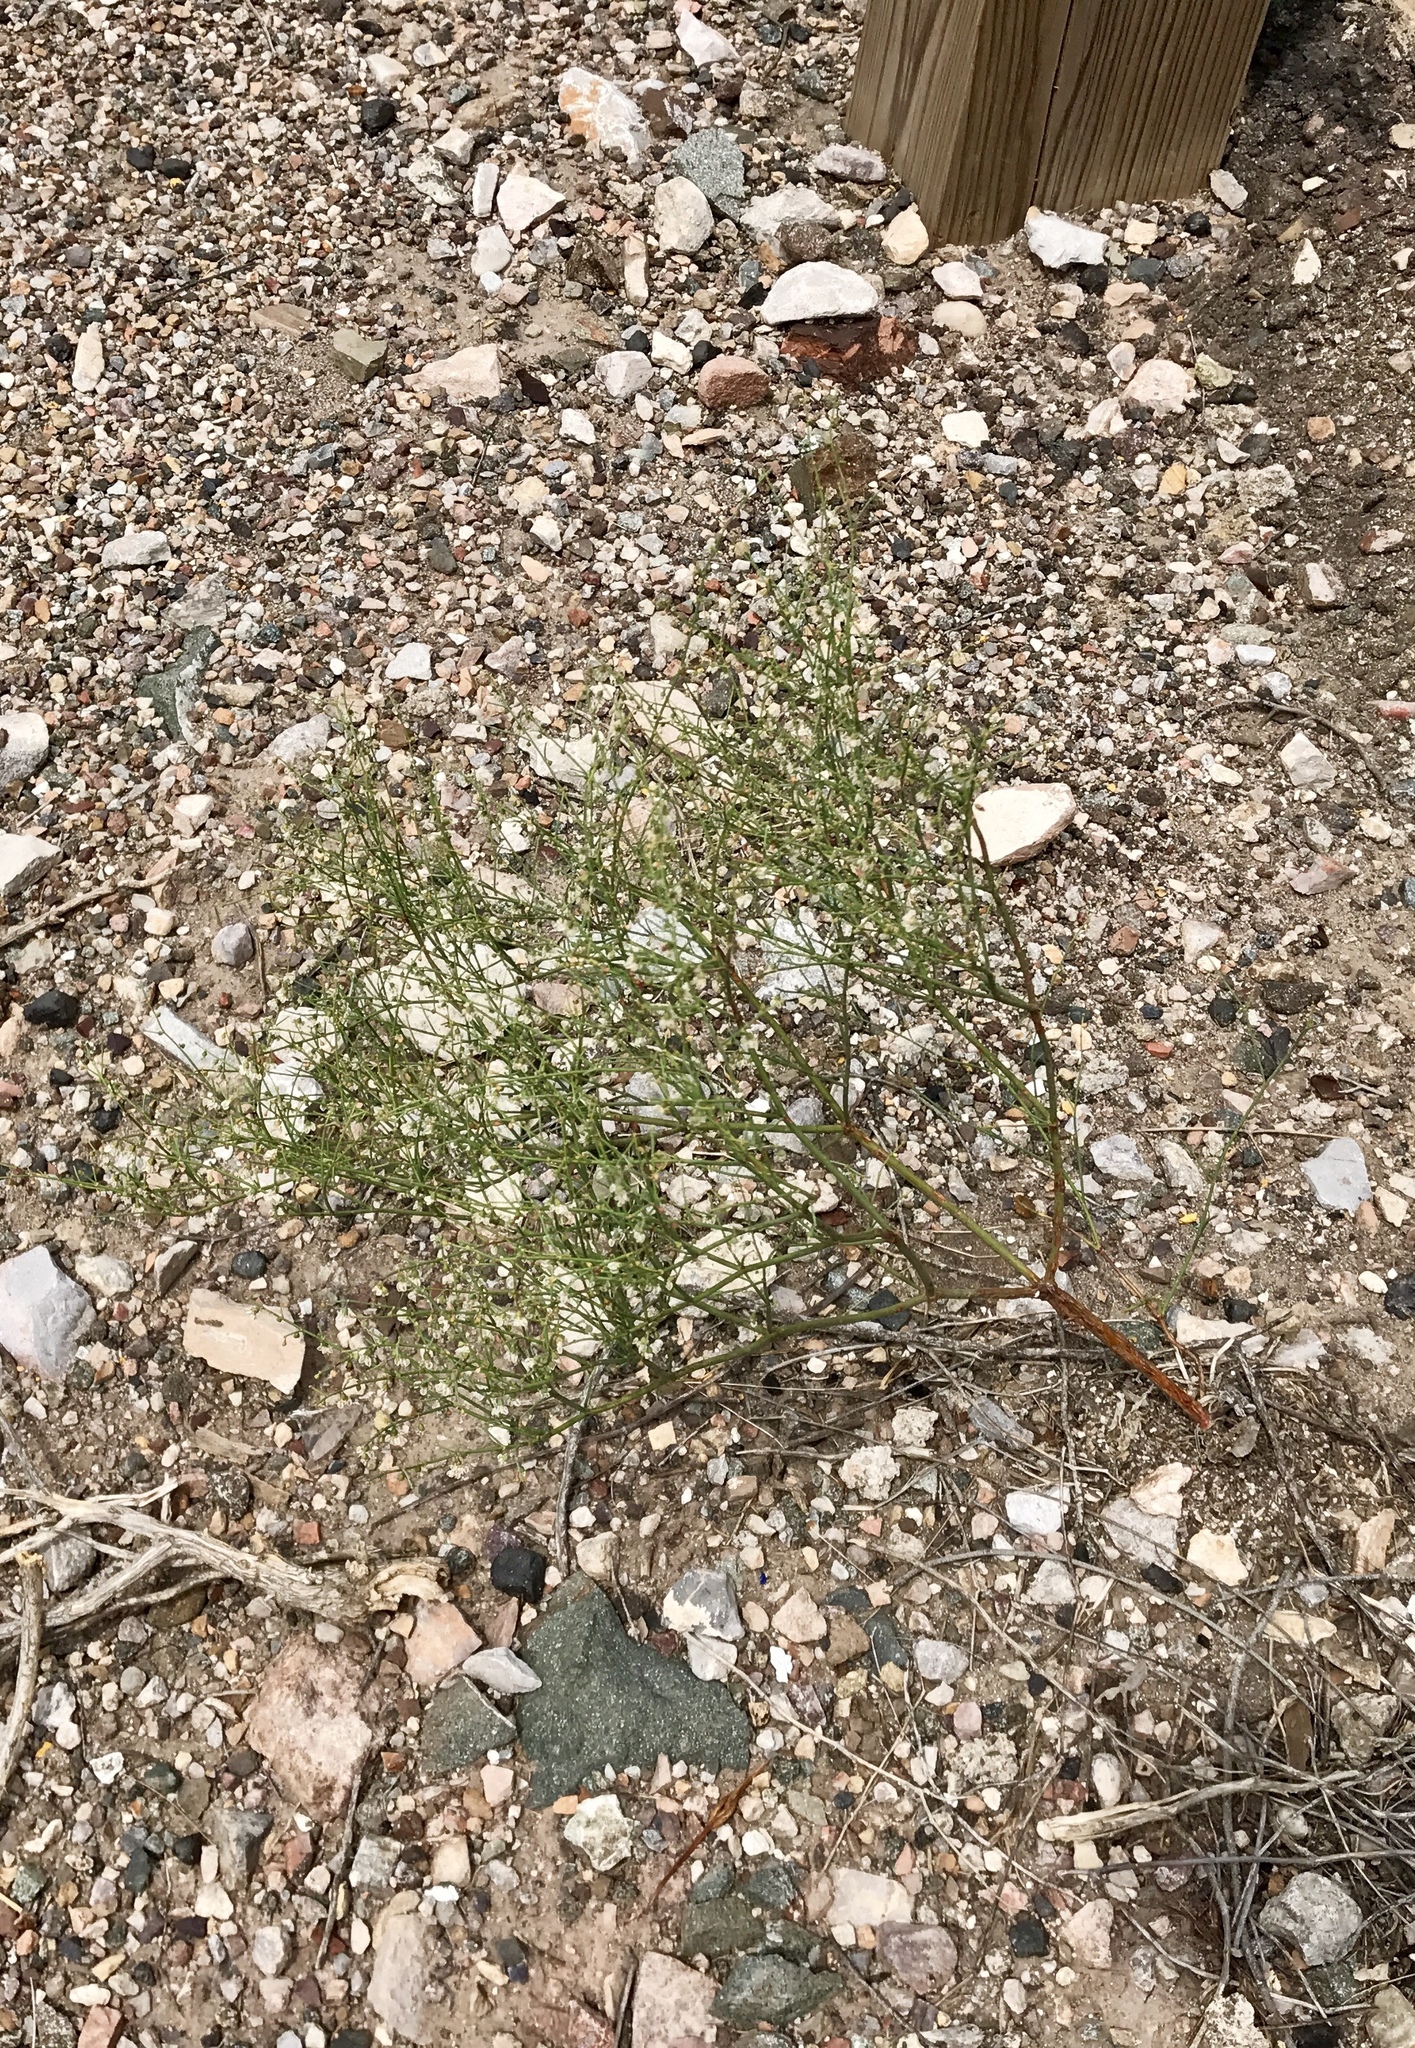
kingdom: Plantae
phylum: Tracheophyta
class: Magnoliopsida
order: Caryophyllales
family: Polygonaceae
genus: Eriogonum
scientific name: Eriogonum deflexum
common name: Skeleton-weed
